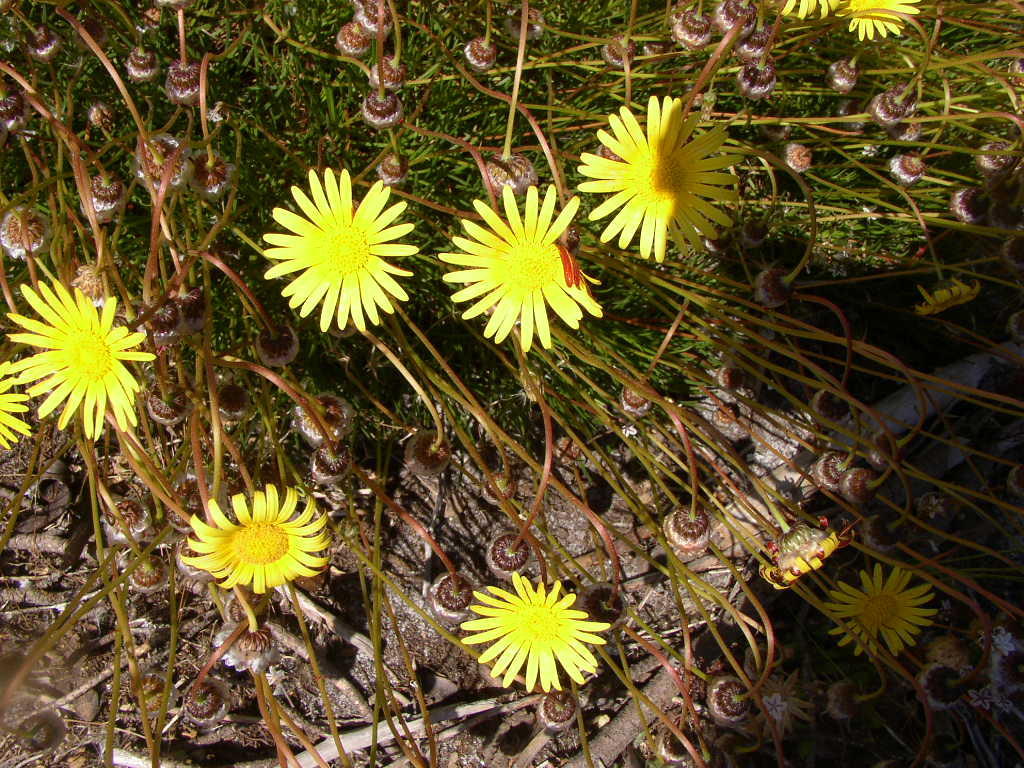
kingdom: Plantae
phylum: Tracheophyta
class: Magnoliopsida
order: Asterales
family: Asteraceae
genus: Ursinia
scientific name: Ursinia nudicaulis
